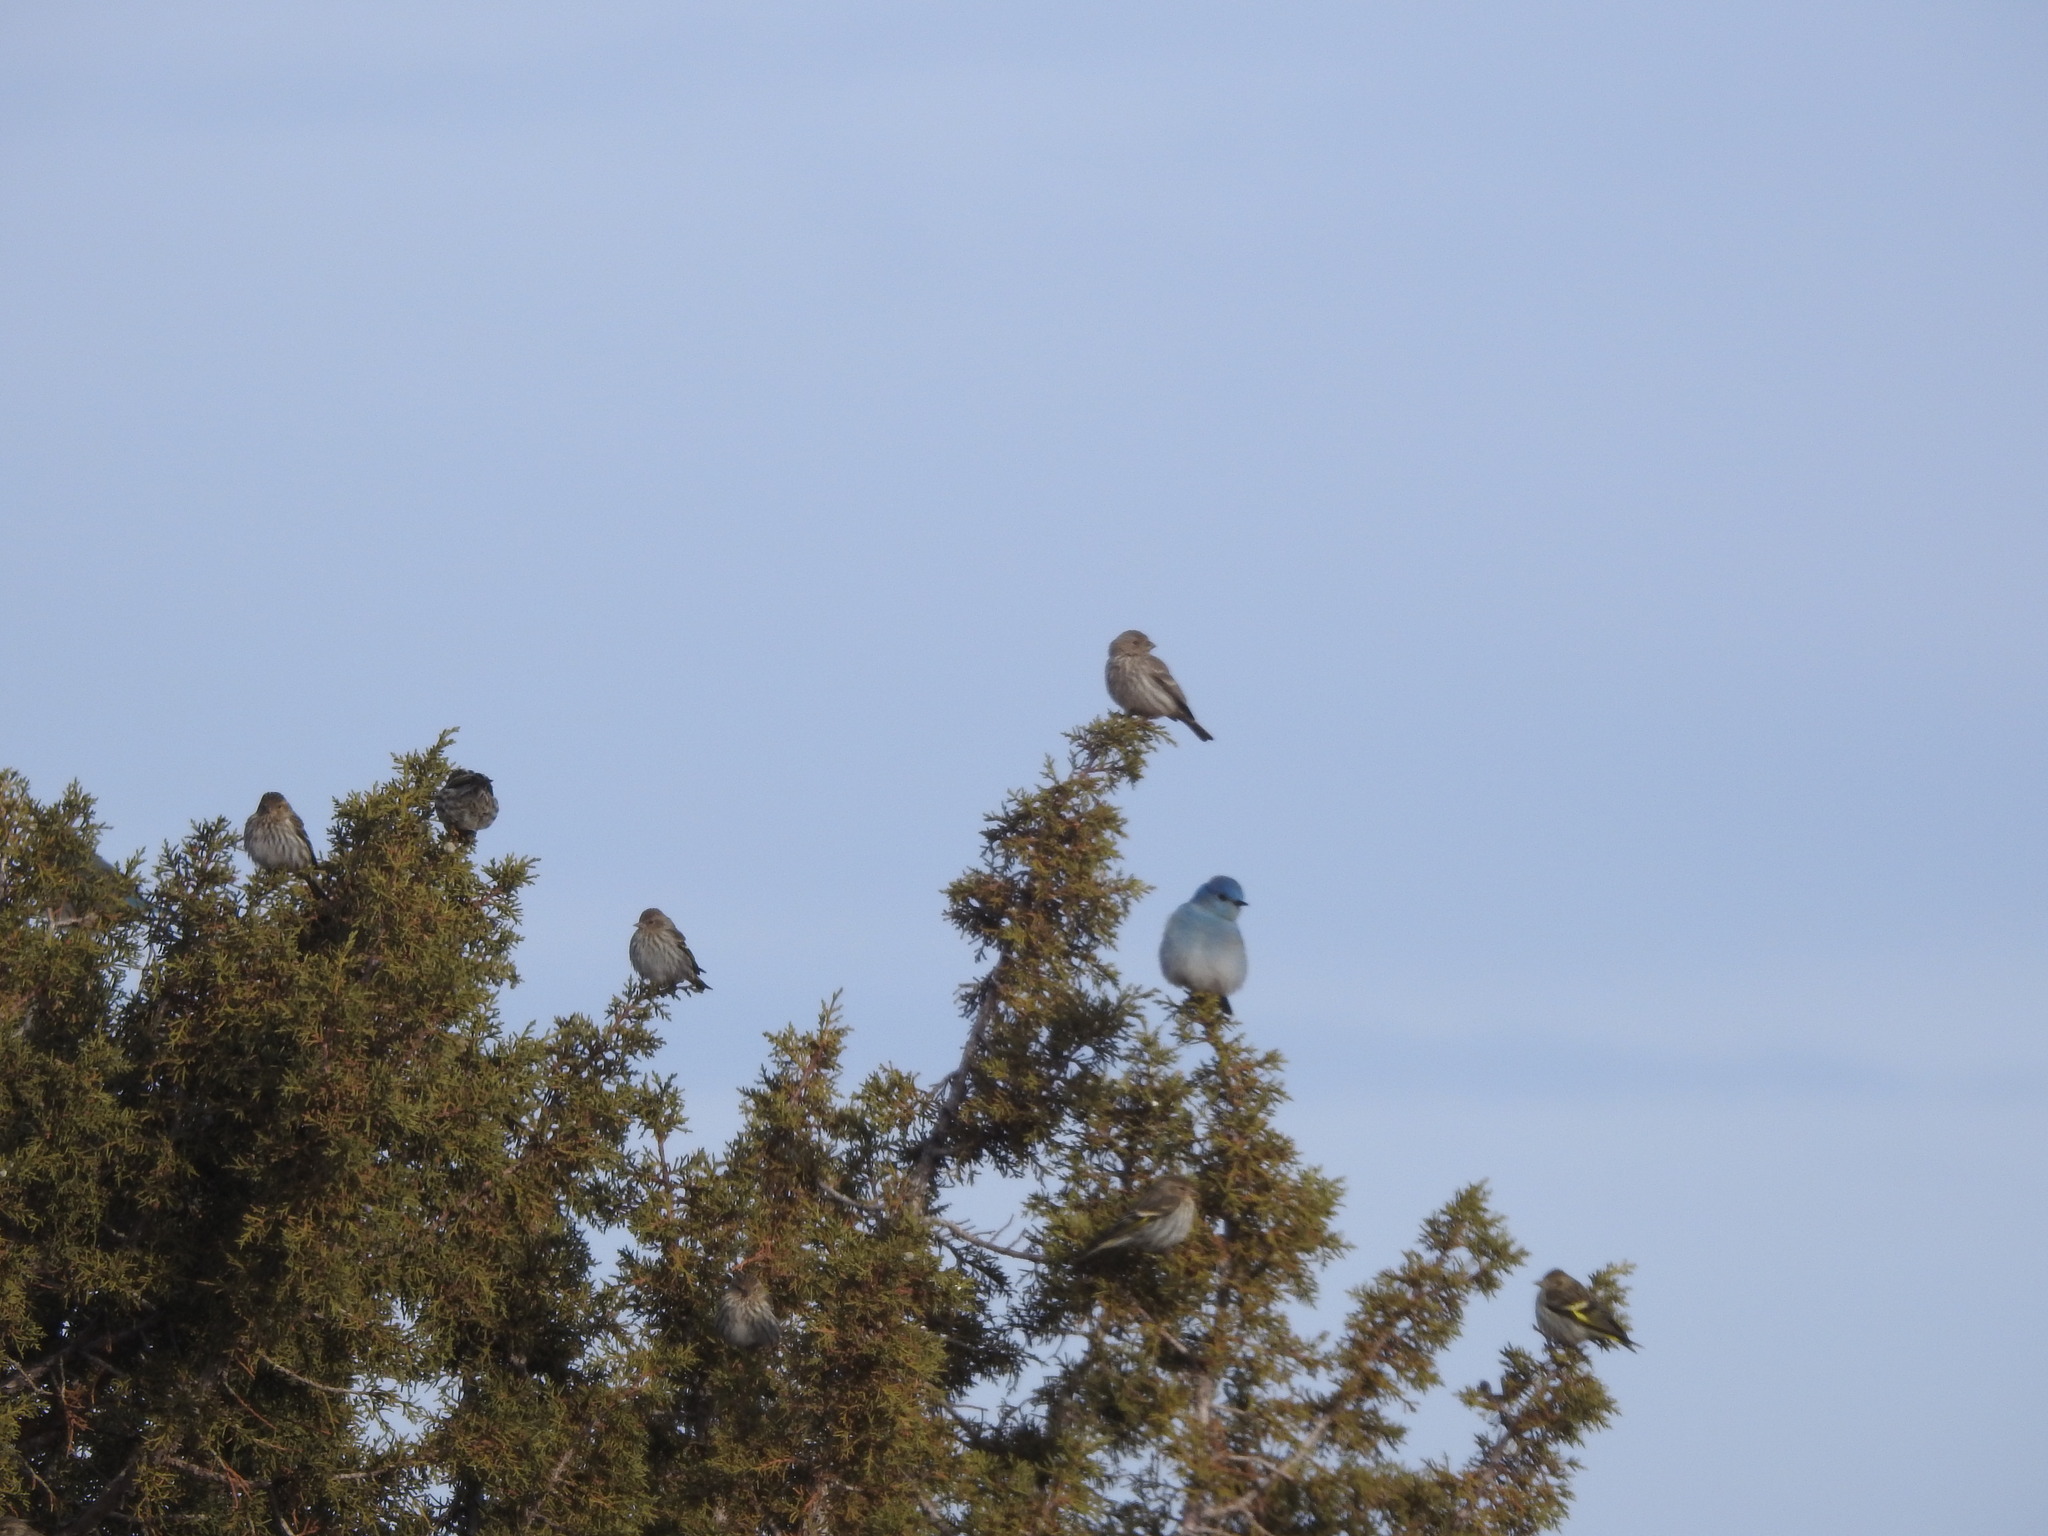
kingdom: Animalia
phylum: Chordata
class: Aves
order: Passeriformes
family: Fringillidae
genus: Haemorhous
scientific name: Haemorhous mexicanus
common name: House finch
